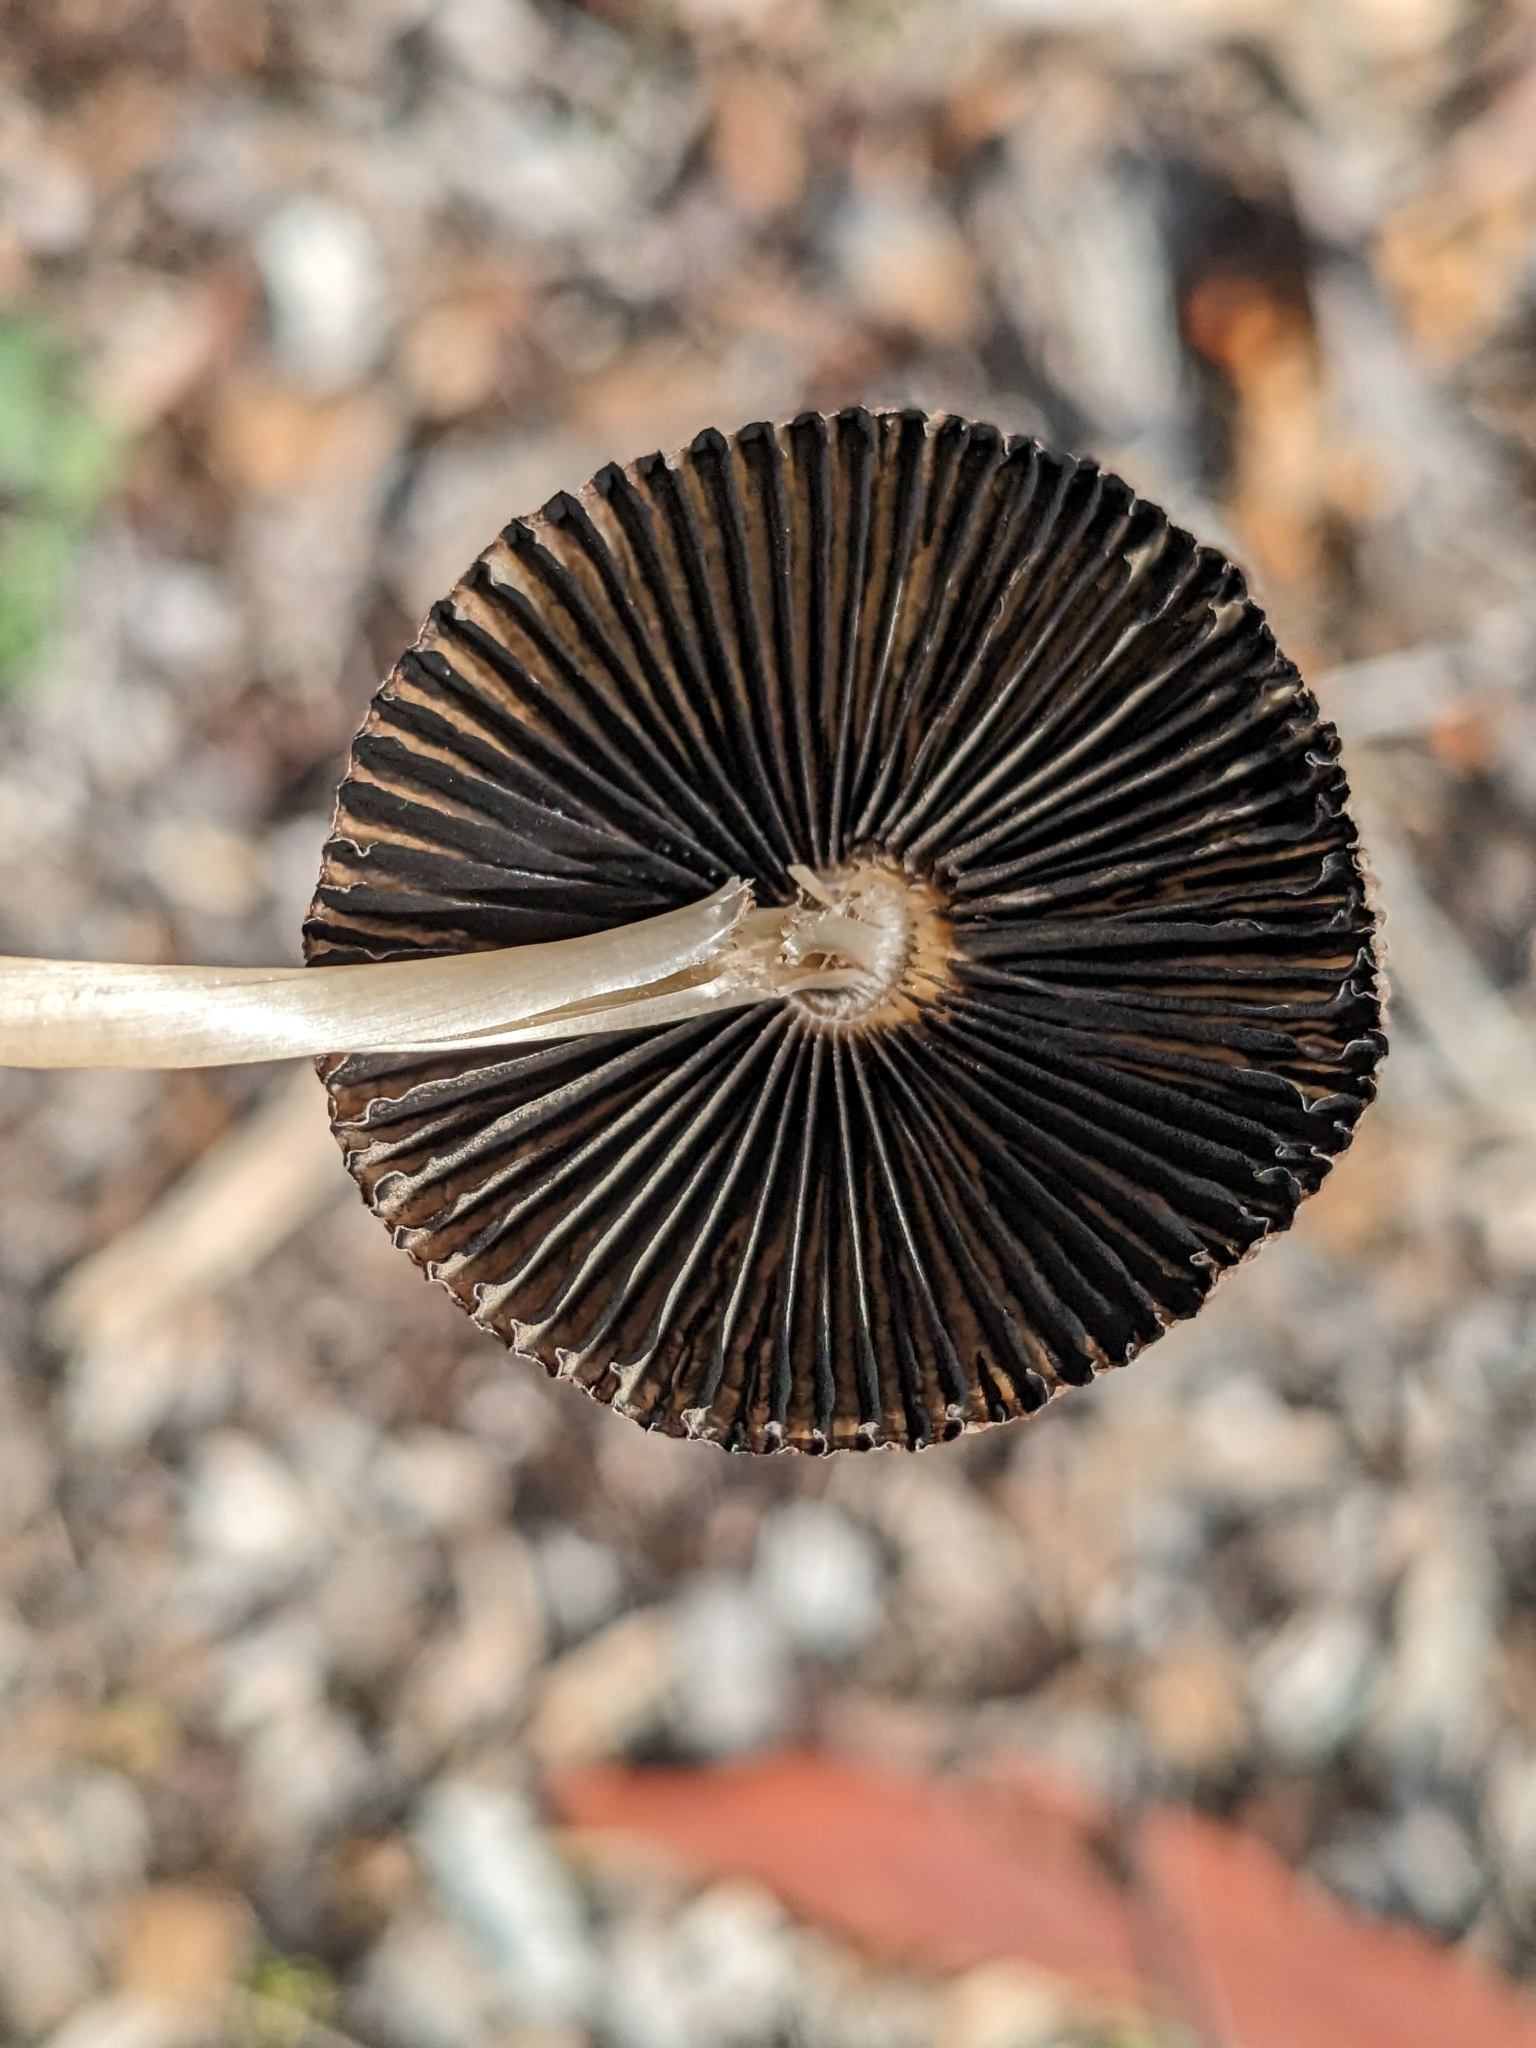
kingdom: Fungi
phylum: Basidiomycota
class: Agaricomycetes
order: Agaricales
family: Psathyrellaceae
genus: Parasola
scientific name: Parasola auricoma
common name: Goldenhaired inkcap
